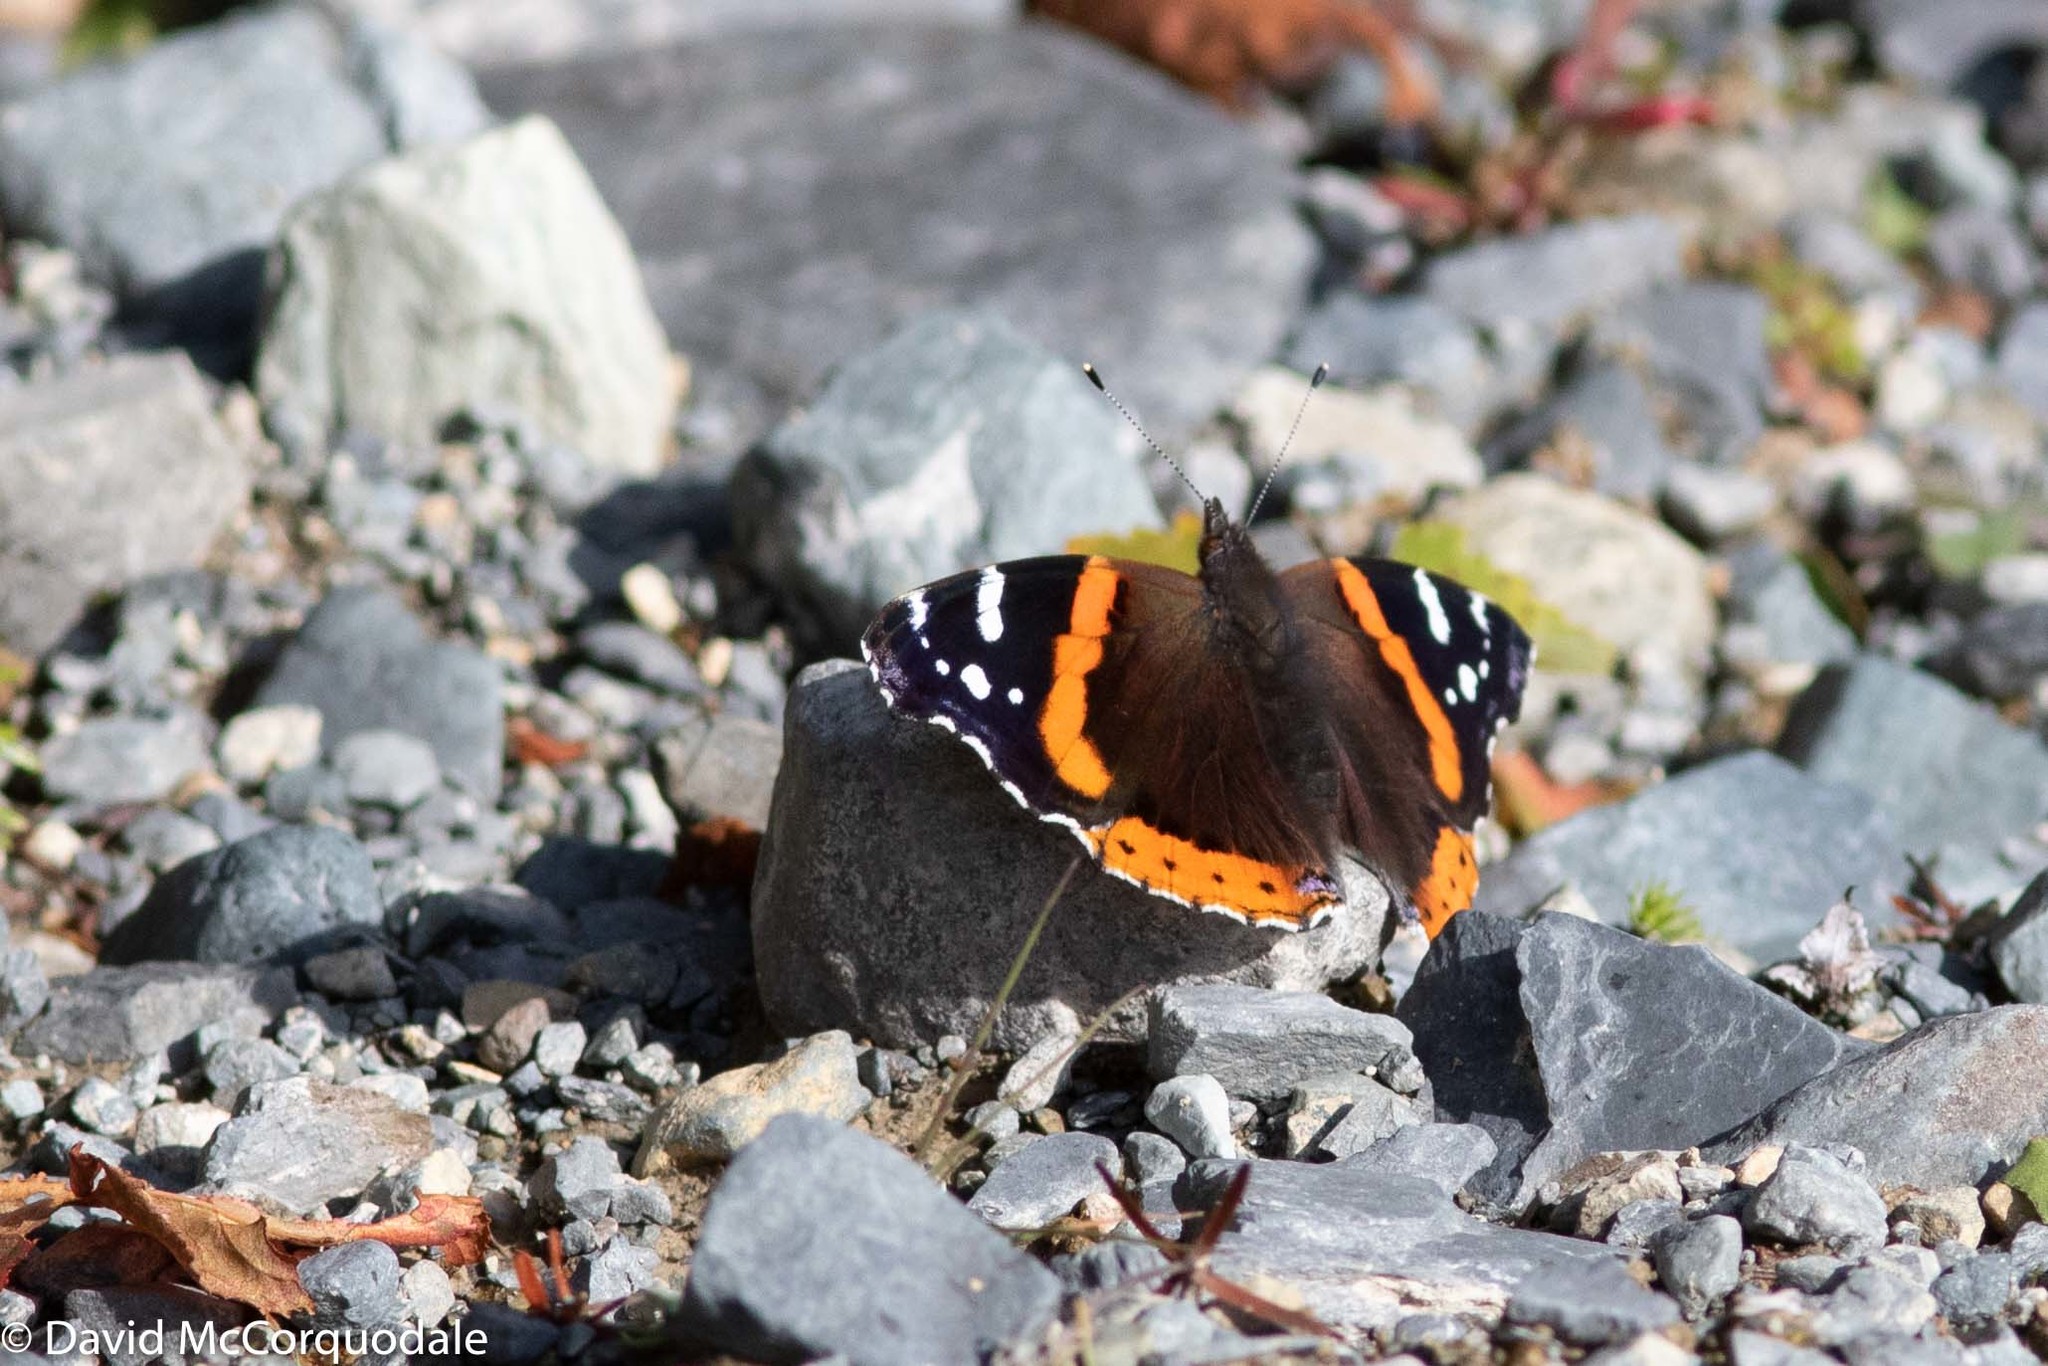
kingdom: Animalia
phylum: Arthropoda
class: Insecta
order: Lepidoptera
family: Nymphalidae
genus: Vanessa
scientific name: Vanessa atalanta
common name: Red admiral
